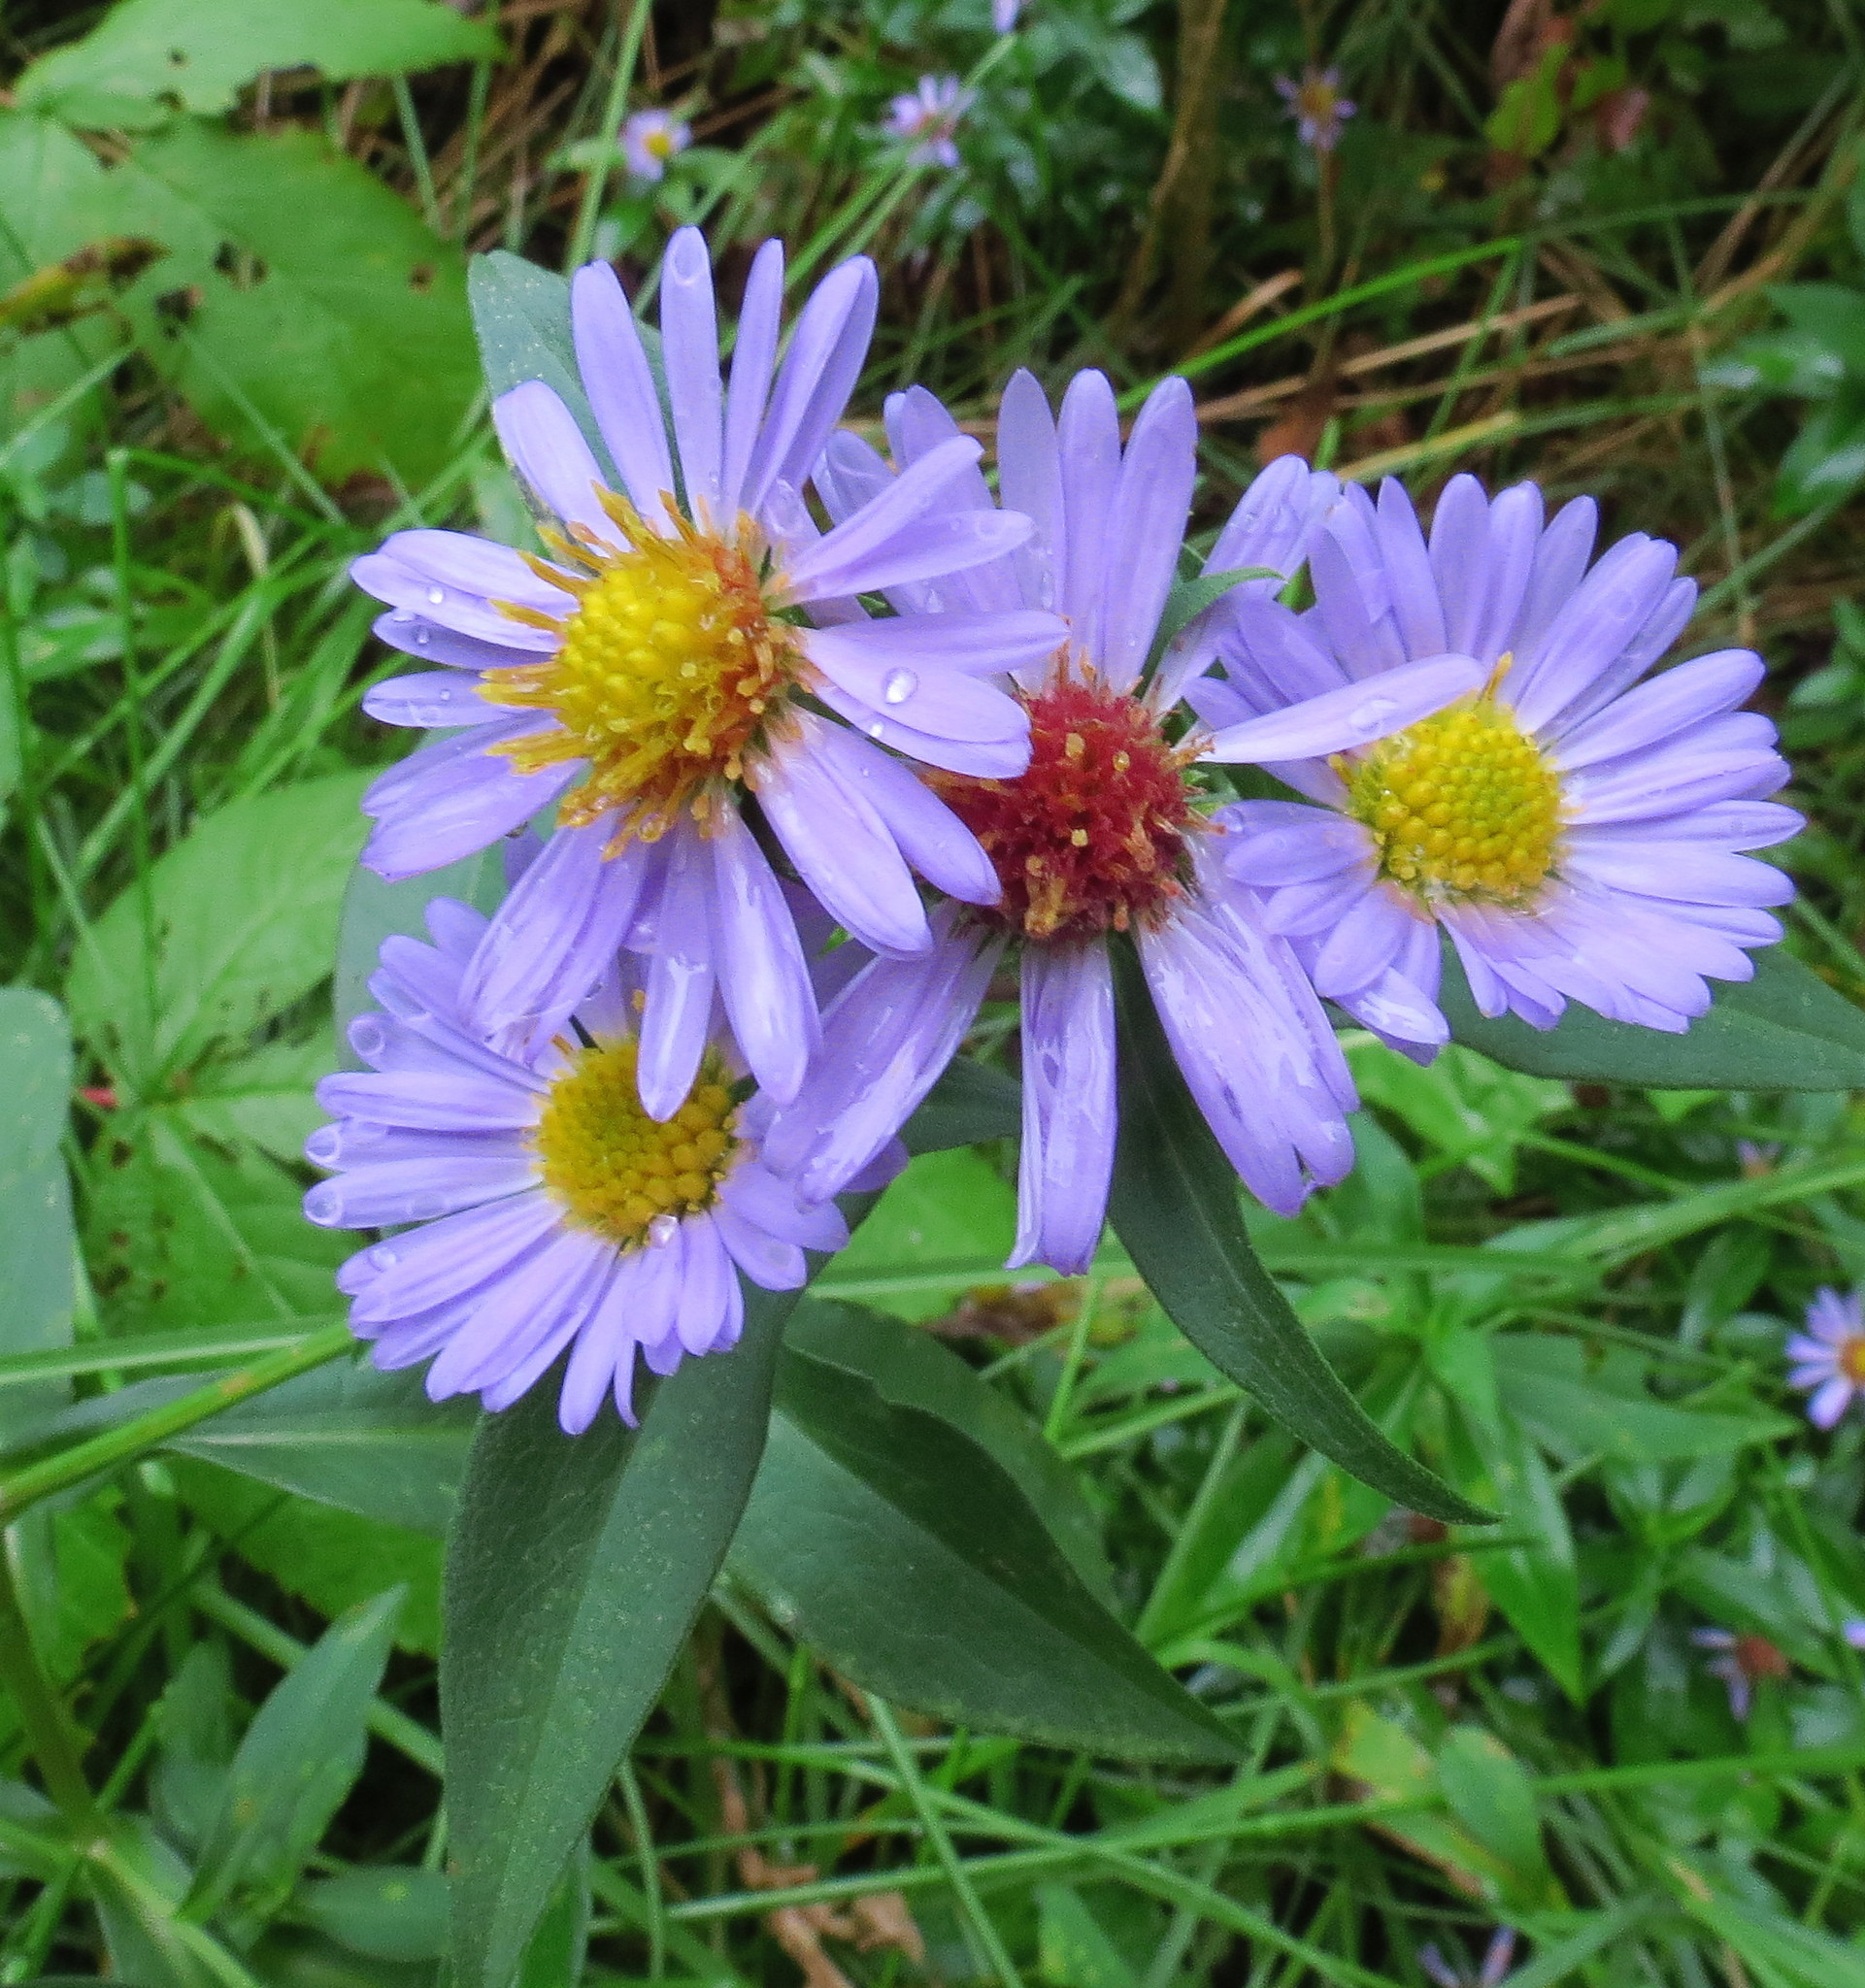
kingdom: Plantae
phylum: Tracheophyta
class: Magnoliopsida
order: Asterales
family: Asteraceae
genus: Symphyotrichum
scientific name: Symphyotrichum novi-belgii
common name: Michaelmas daisy
